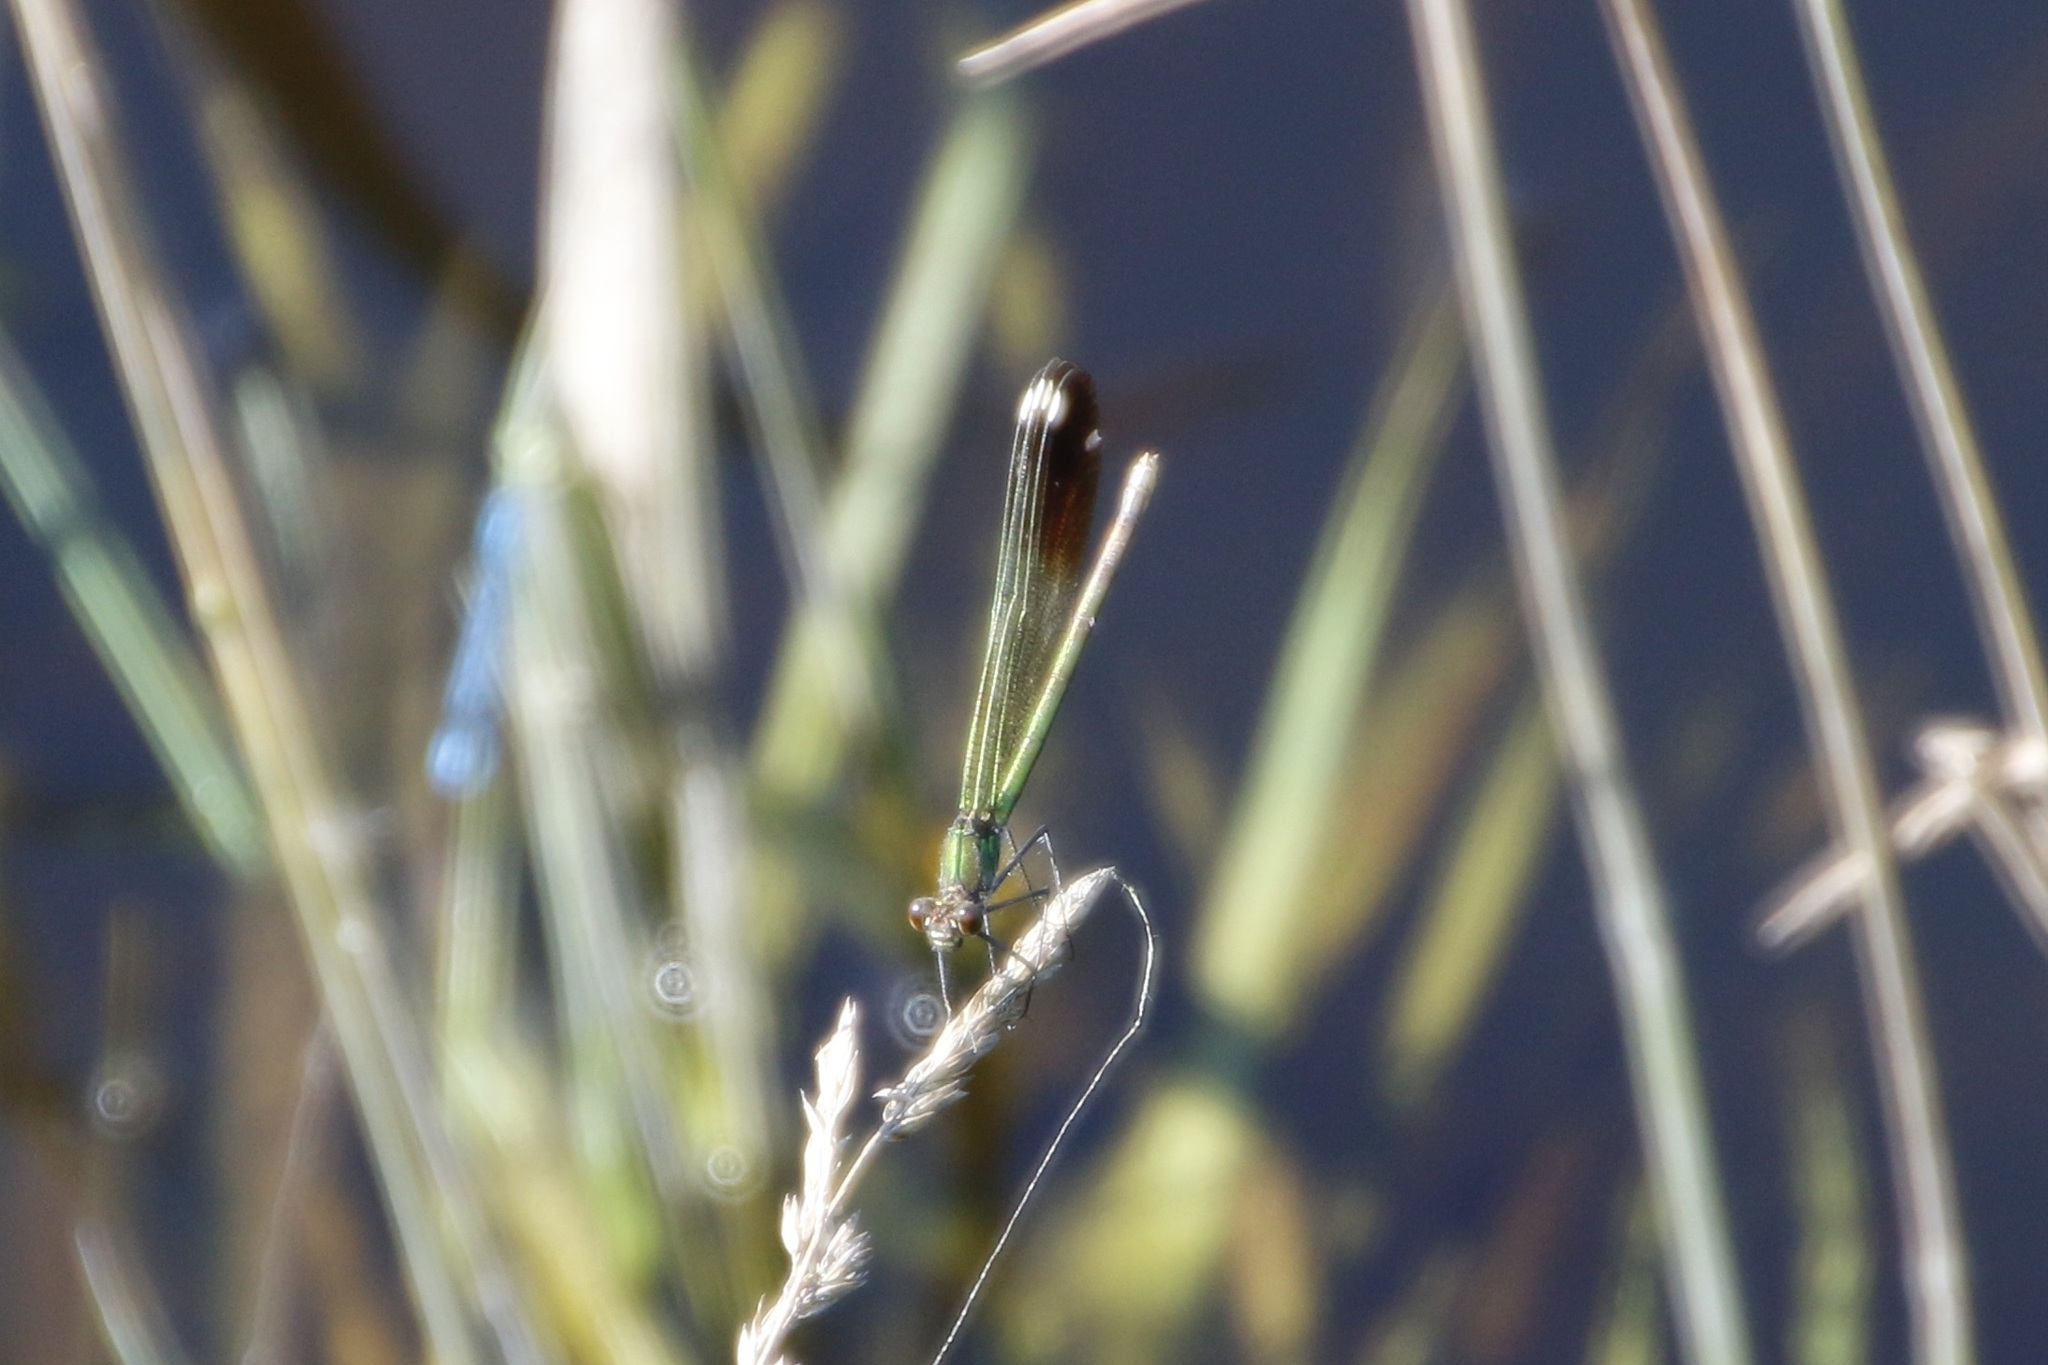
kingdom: Animalia
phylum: Arthropoda
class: Insecta
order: Odonata
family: Calopterygidae
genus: Calopteryx
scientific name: Calopteryx aequabilis
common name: River jewelwing
